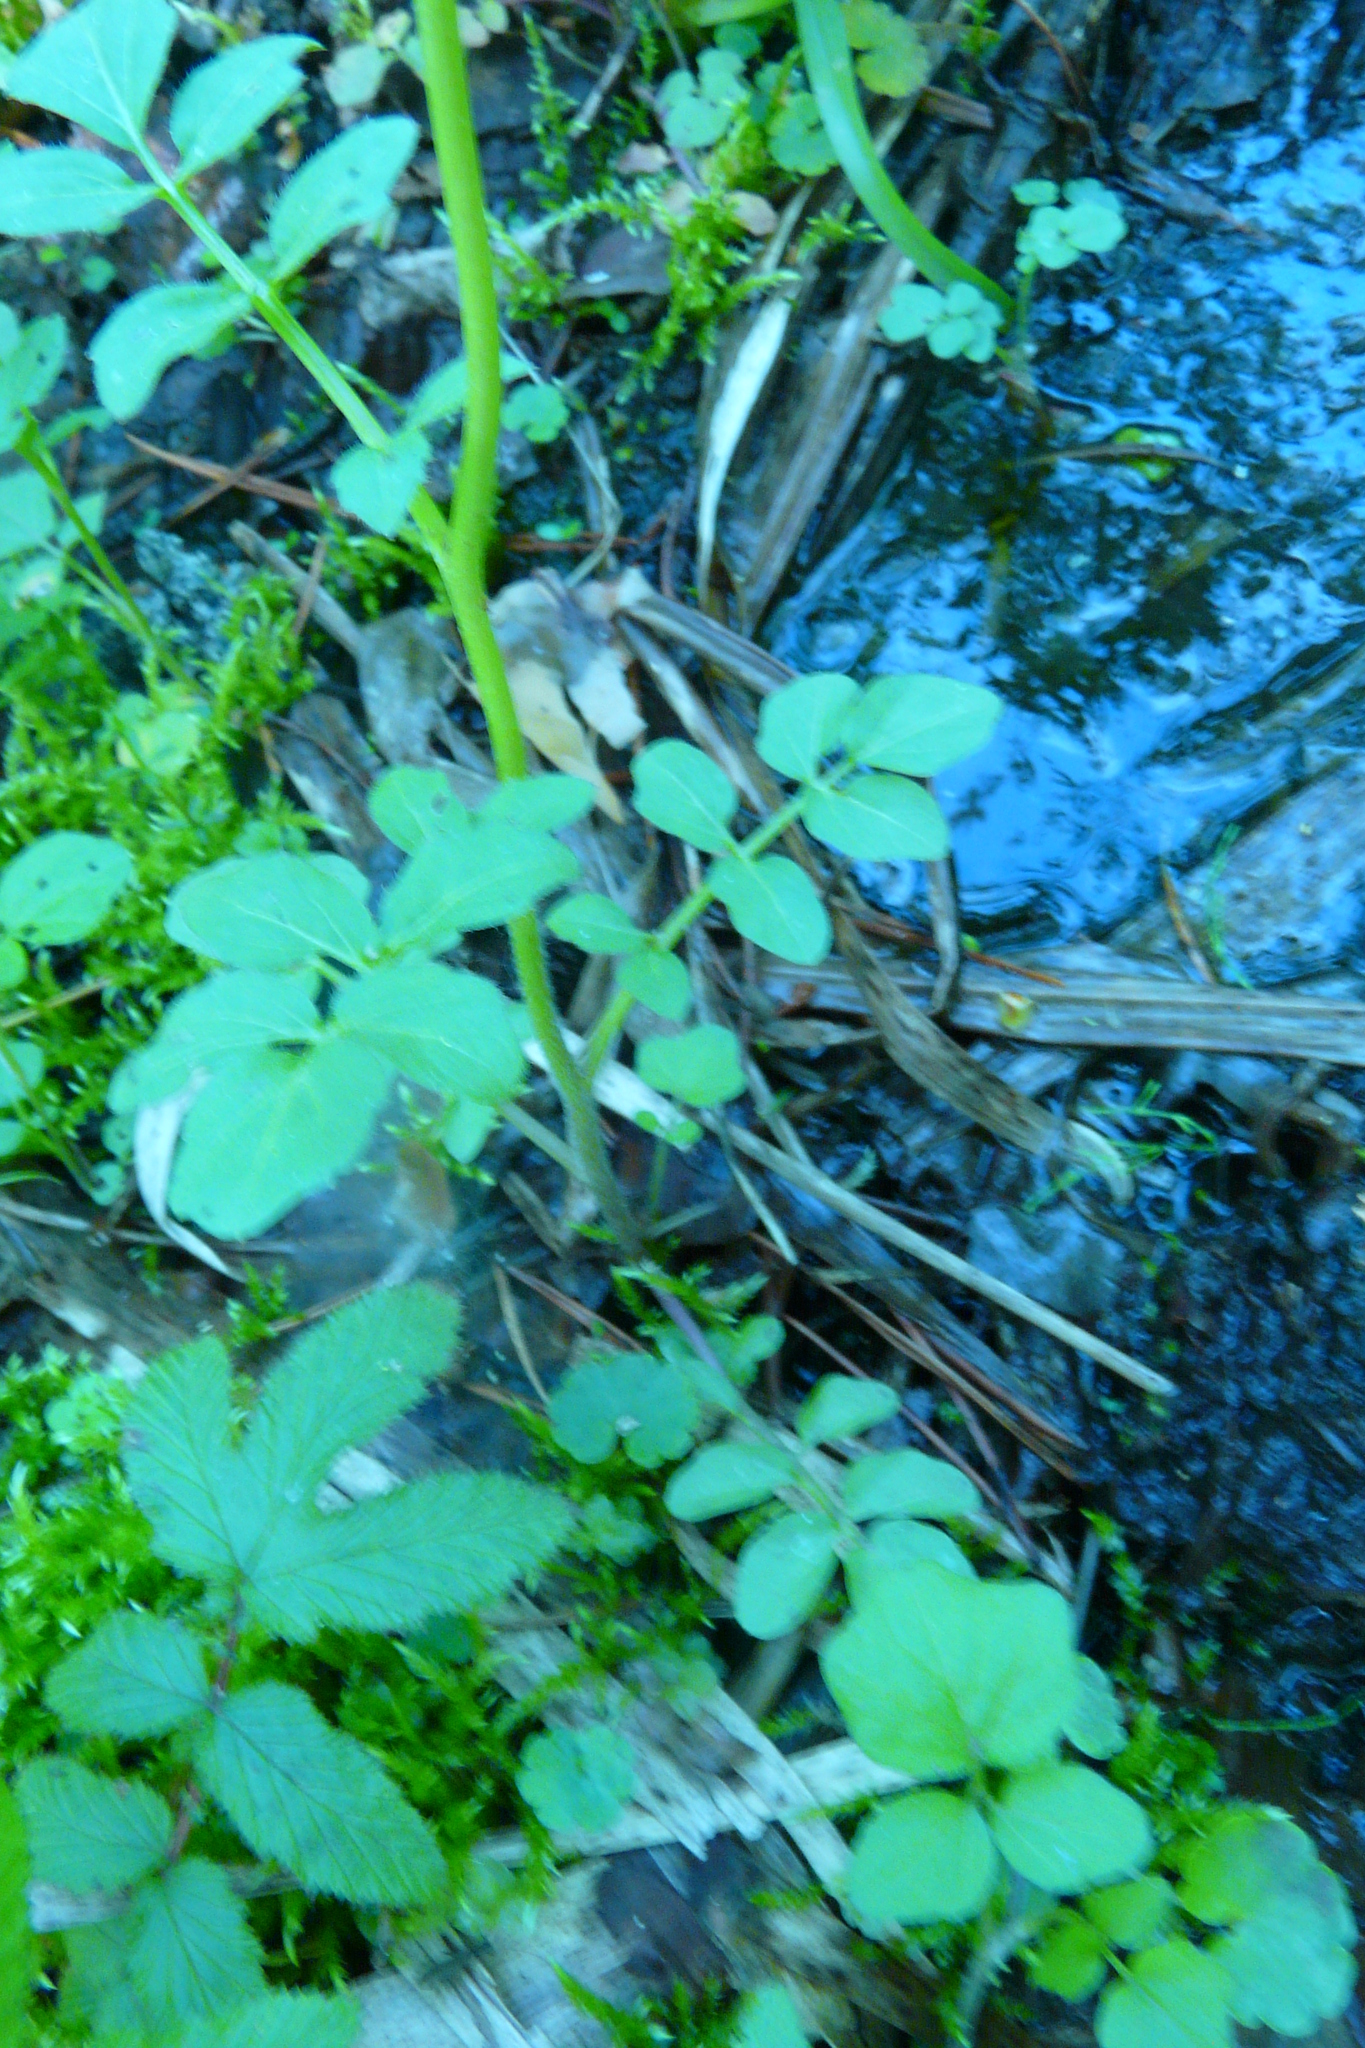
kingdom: Plantae
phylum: Tracheophyta
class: Magnoliopsida
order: Brassicales
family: Brassicaceae
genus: Cardamine
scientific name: Cardamine amara
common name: Large bitter-cress
